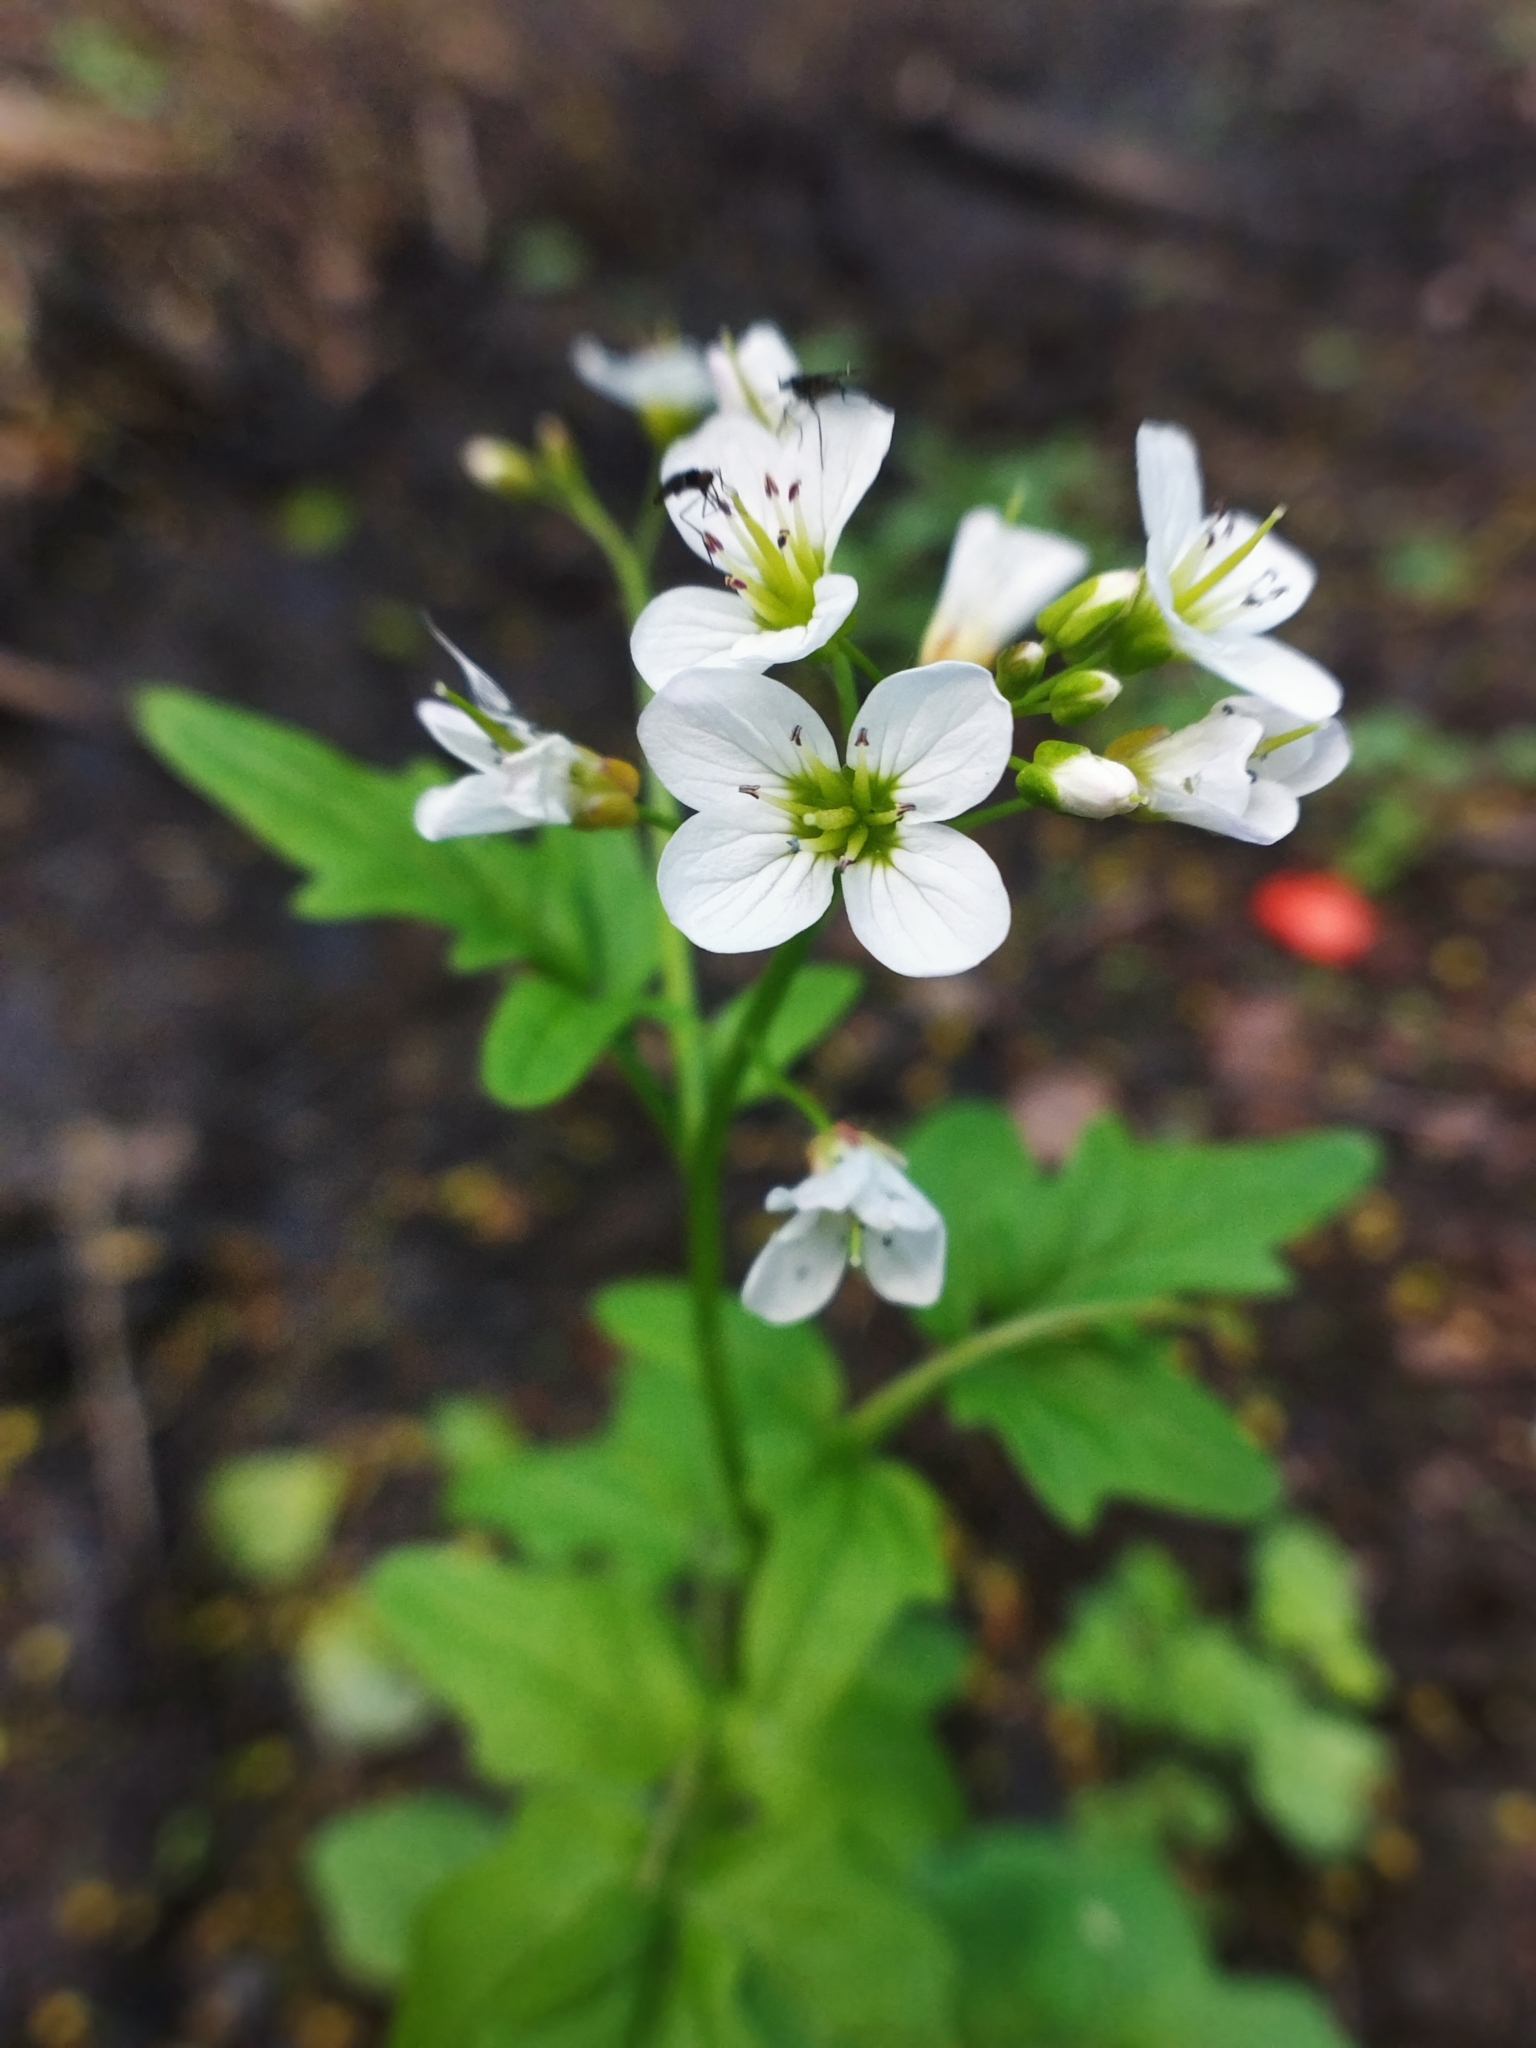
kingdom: Plantae
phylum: Tracheophyta
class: Magnoliopsida
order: Brassicales
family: Brassicaceae
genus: Cardamine
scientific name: Cardamine amara
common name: Large bitter-cress
